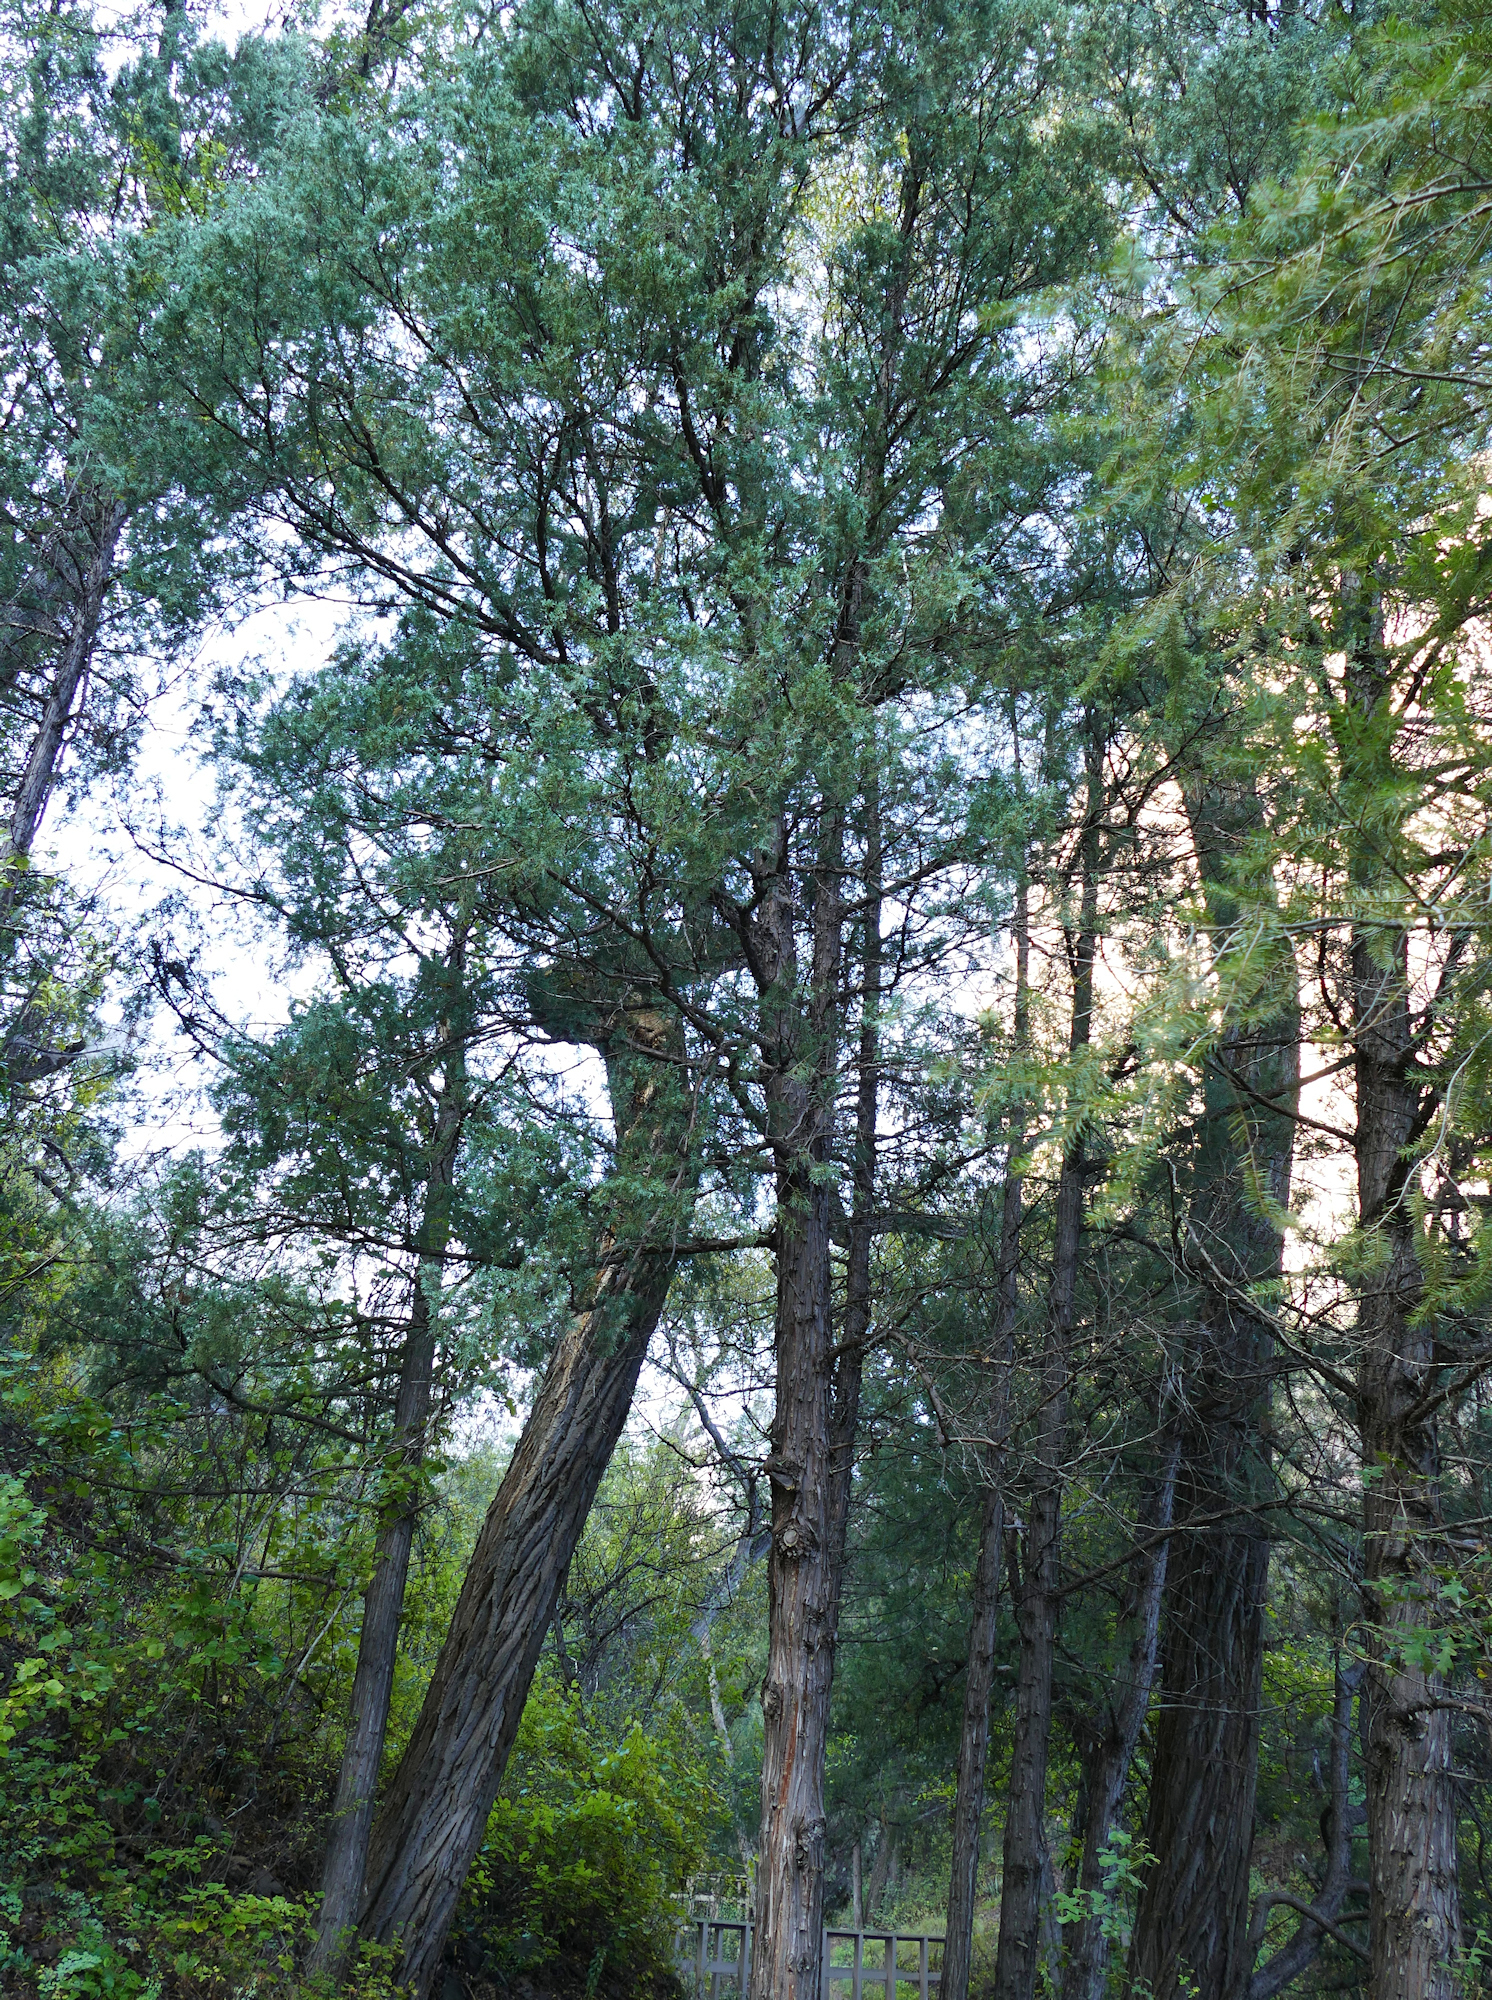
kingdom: Plantae
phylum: Tracheophyta
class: Pinopsida
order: Pinales
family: Cupressaceae
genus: Juniperus
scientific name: Juniperus scopulorum
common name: Rocky mountain juniper
